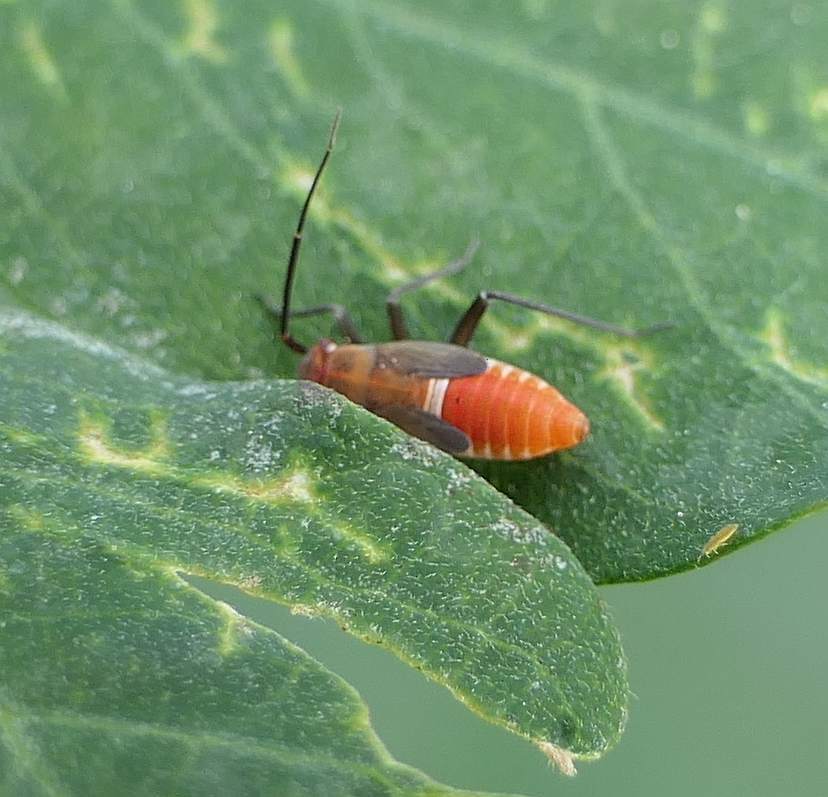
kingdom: Animalia
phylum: Arthropoda
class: Insecta
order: Hemiptera
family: Miridae
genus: Lopidea
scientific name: Lopidea robiniae
